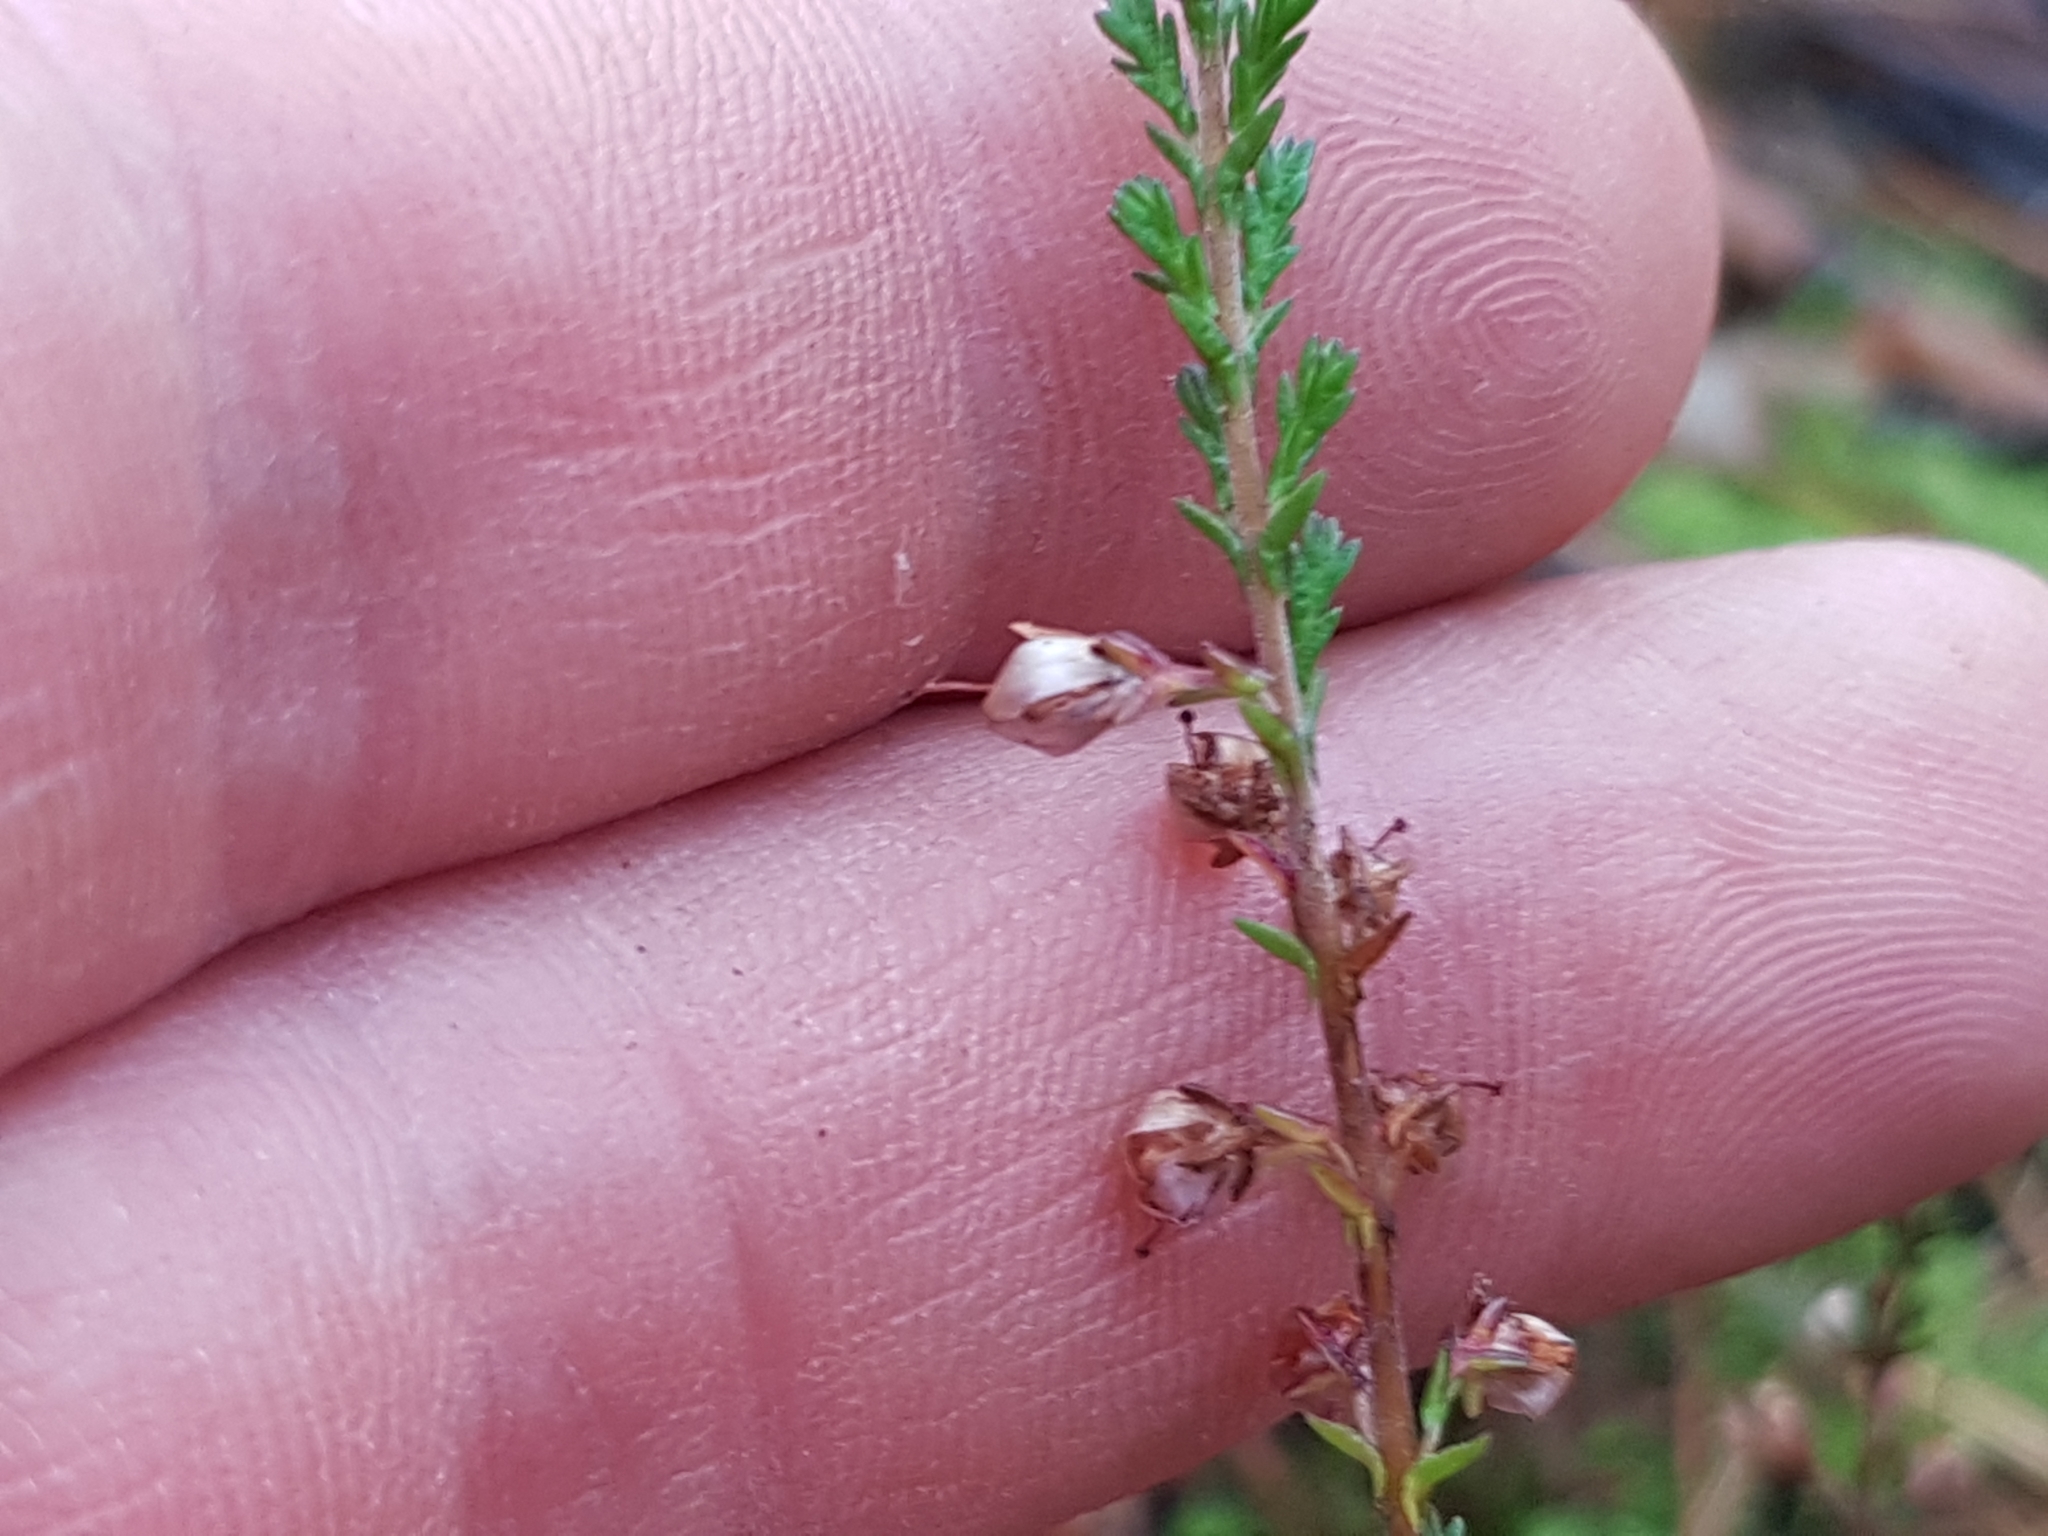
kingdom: Plantae
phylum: Tracheophyta
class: Magnoliopsida
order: Ericales
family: Ericaceae
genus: Calluna
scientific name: Calluna vulgaris
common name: Heather
